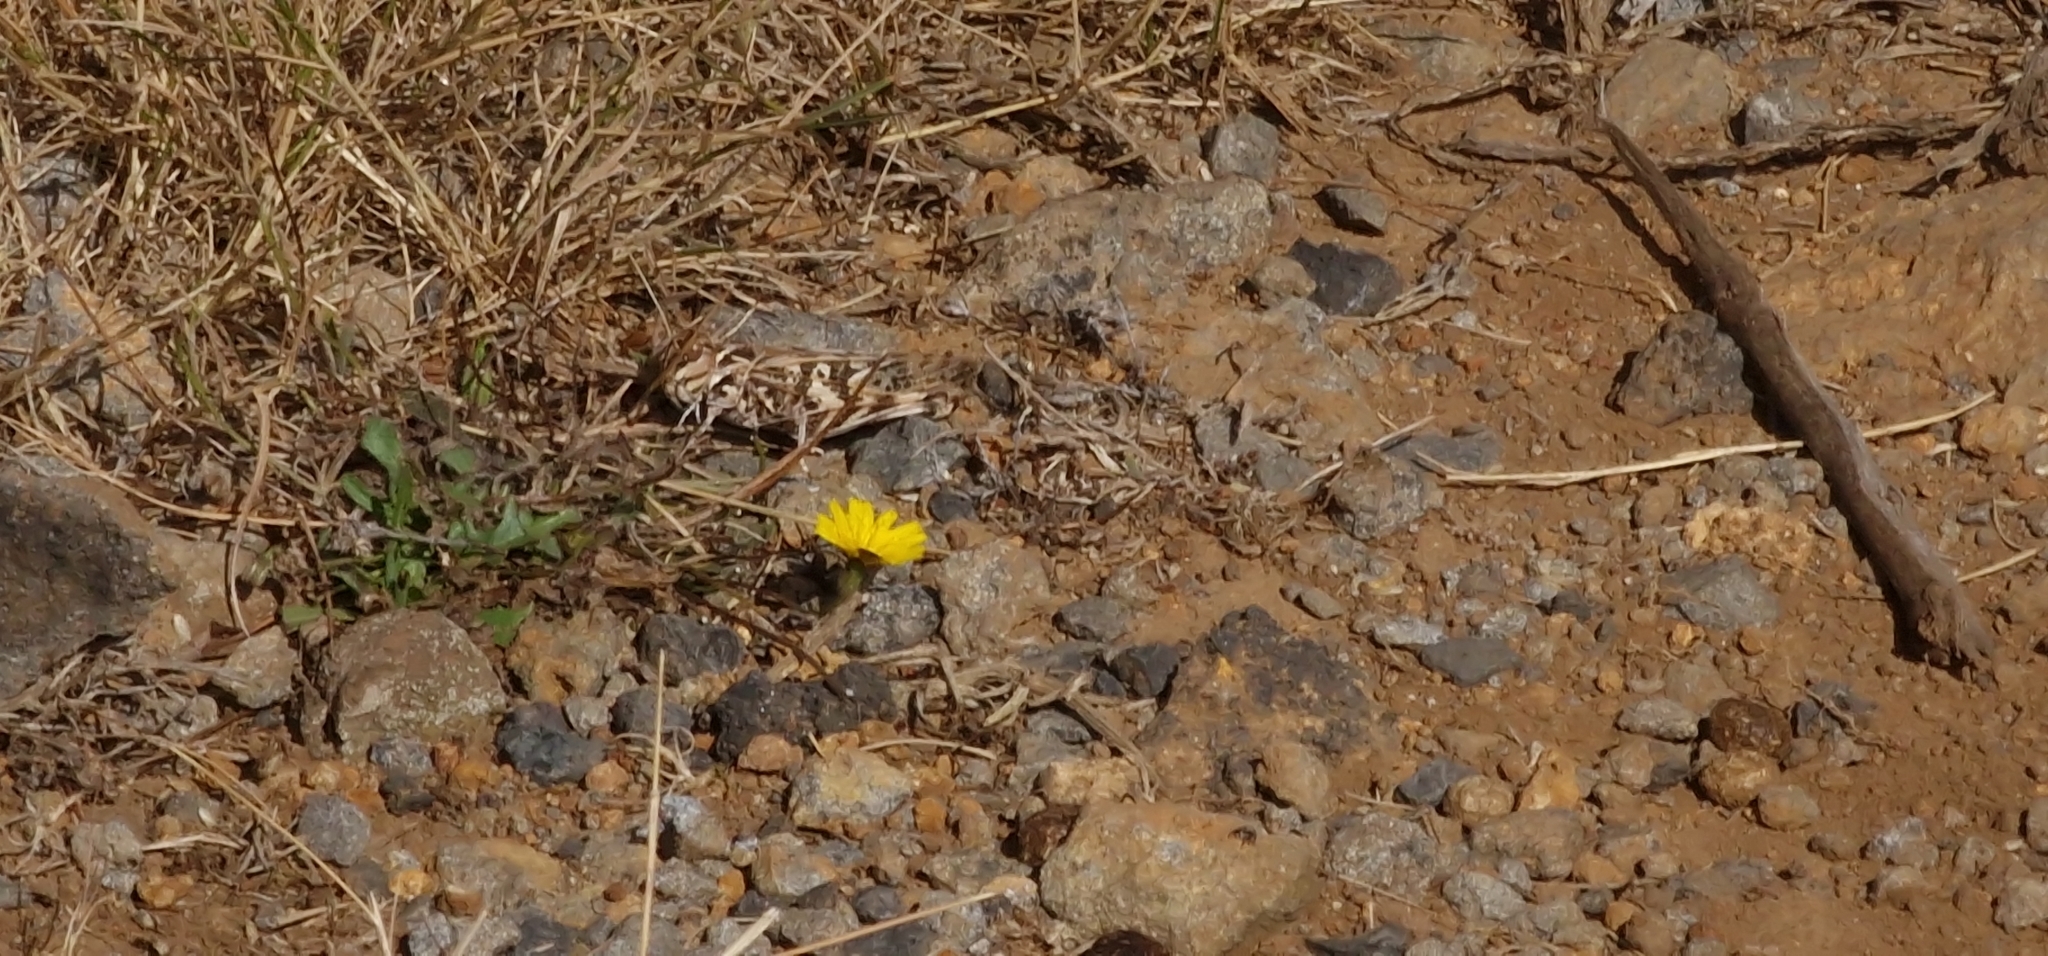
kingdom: Animalia
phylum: Arthropoda
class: Insecta
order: Orthoptera
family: Acrididae
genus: Oedaleus
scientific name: Oedaleus decorus
